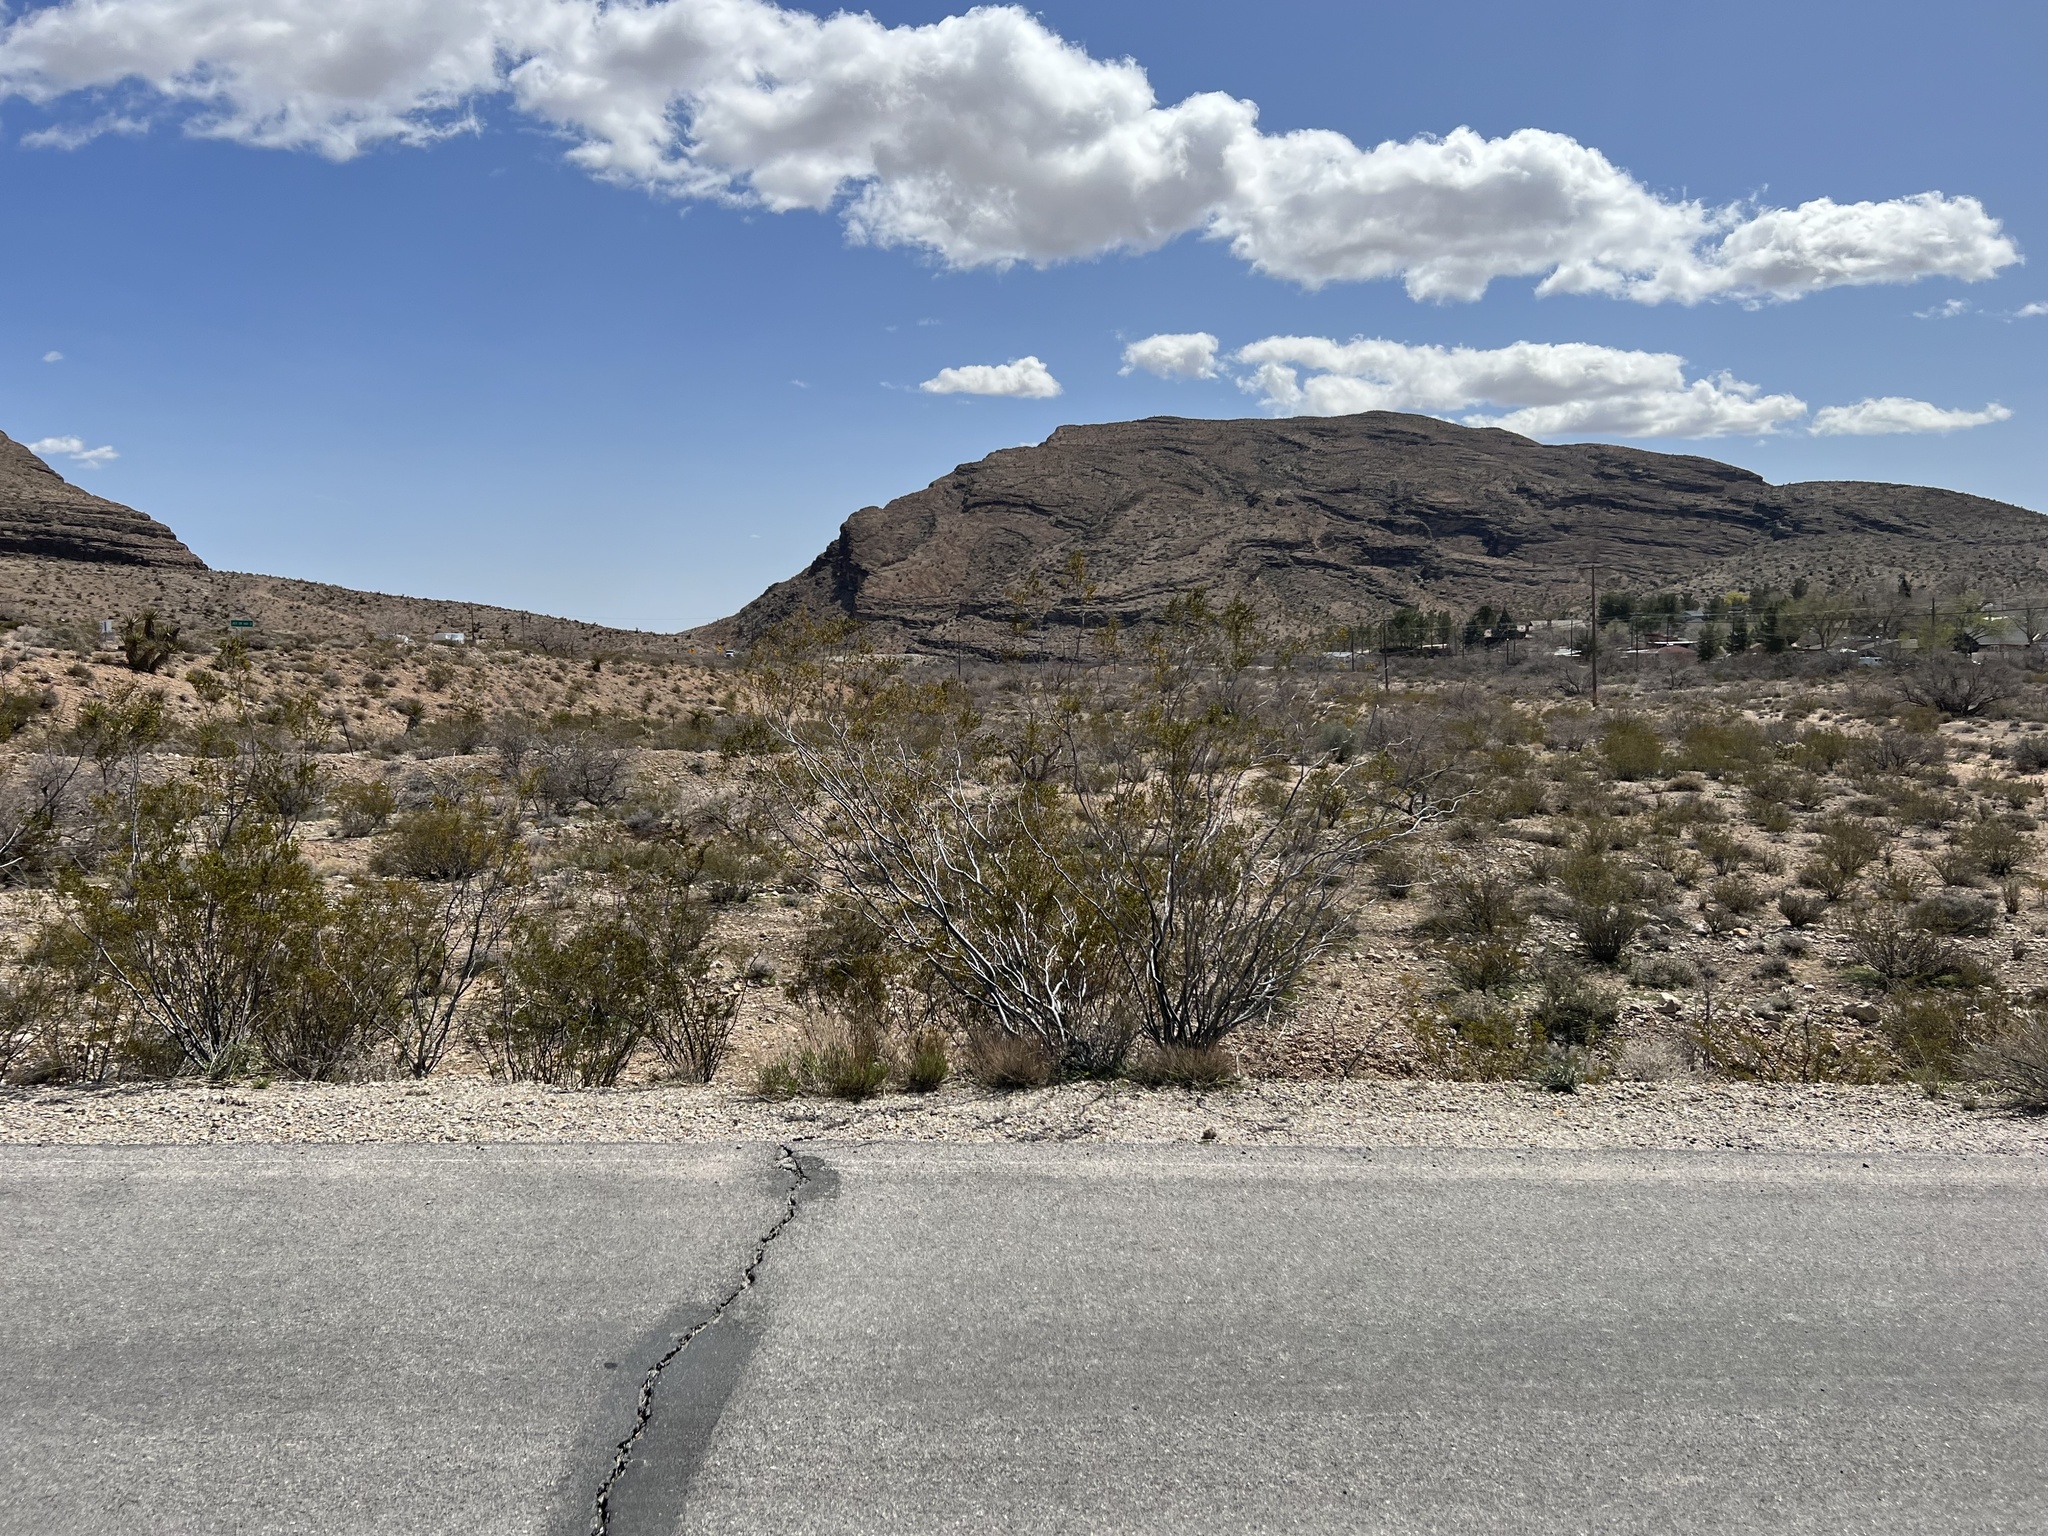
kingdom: Plantae
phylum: Tracheophyta
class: Magnoliopsida
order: Zygophyllales
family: Zygophyllaceae
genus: Larrea
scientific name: Larrea tridentata
